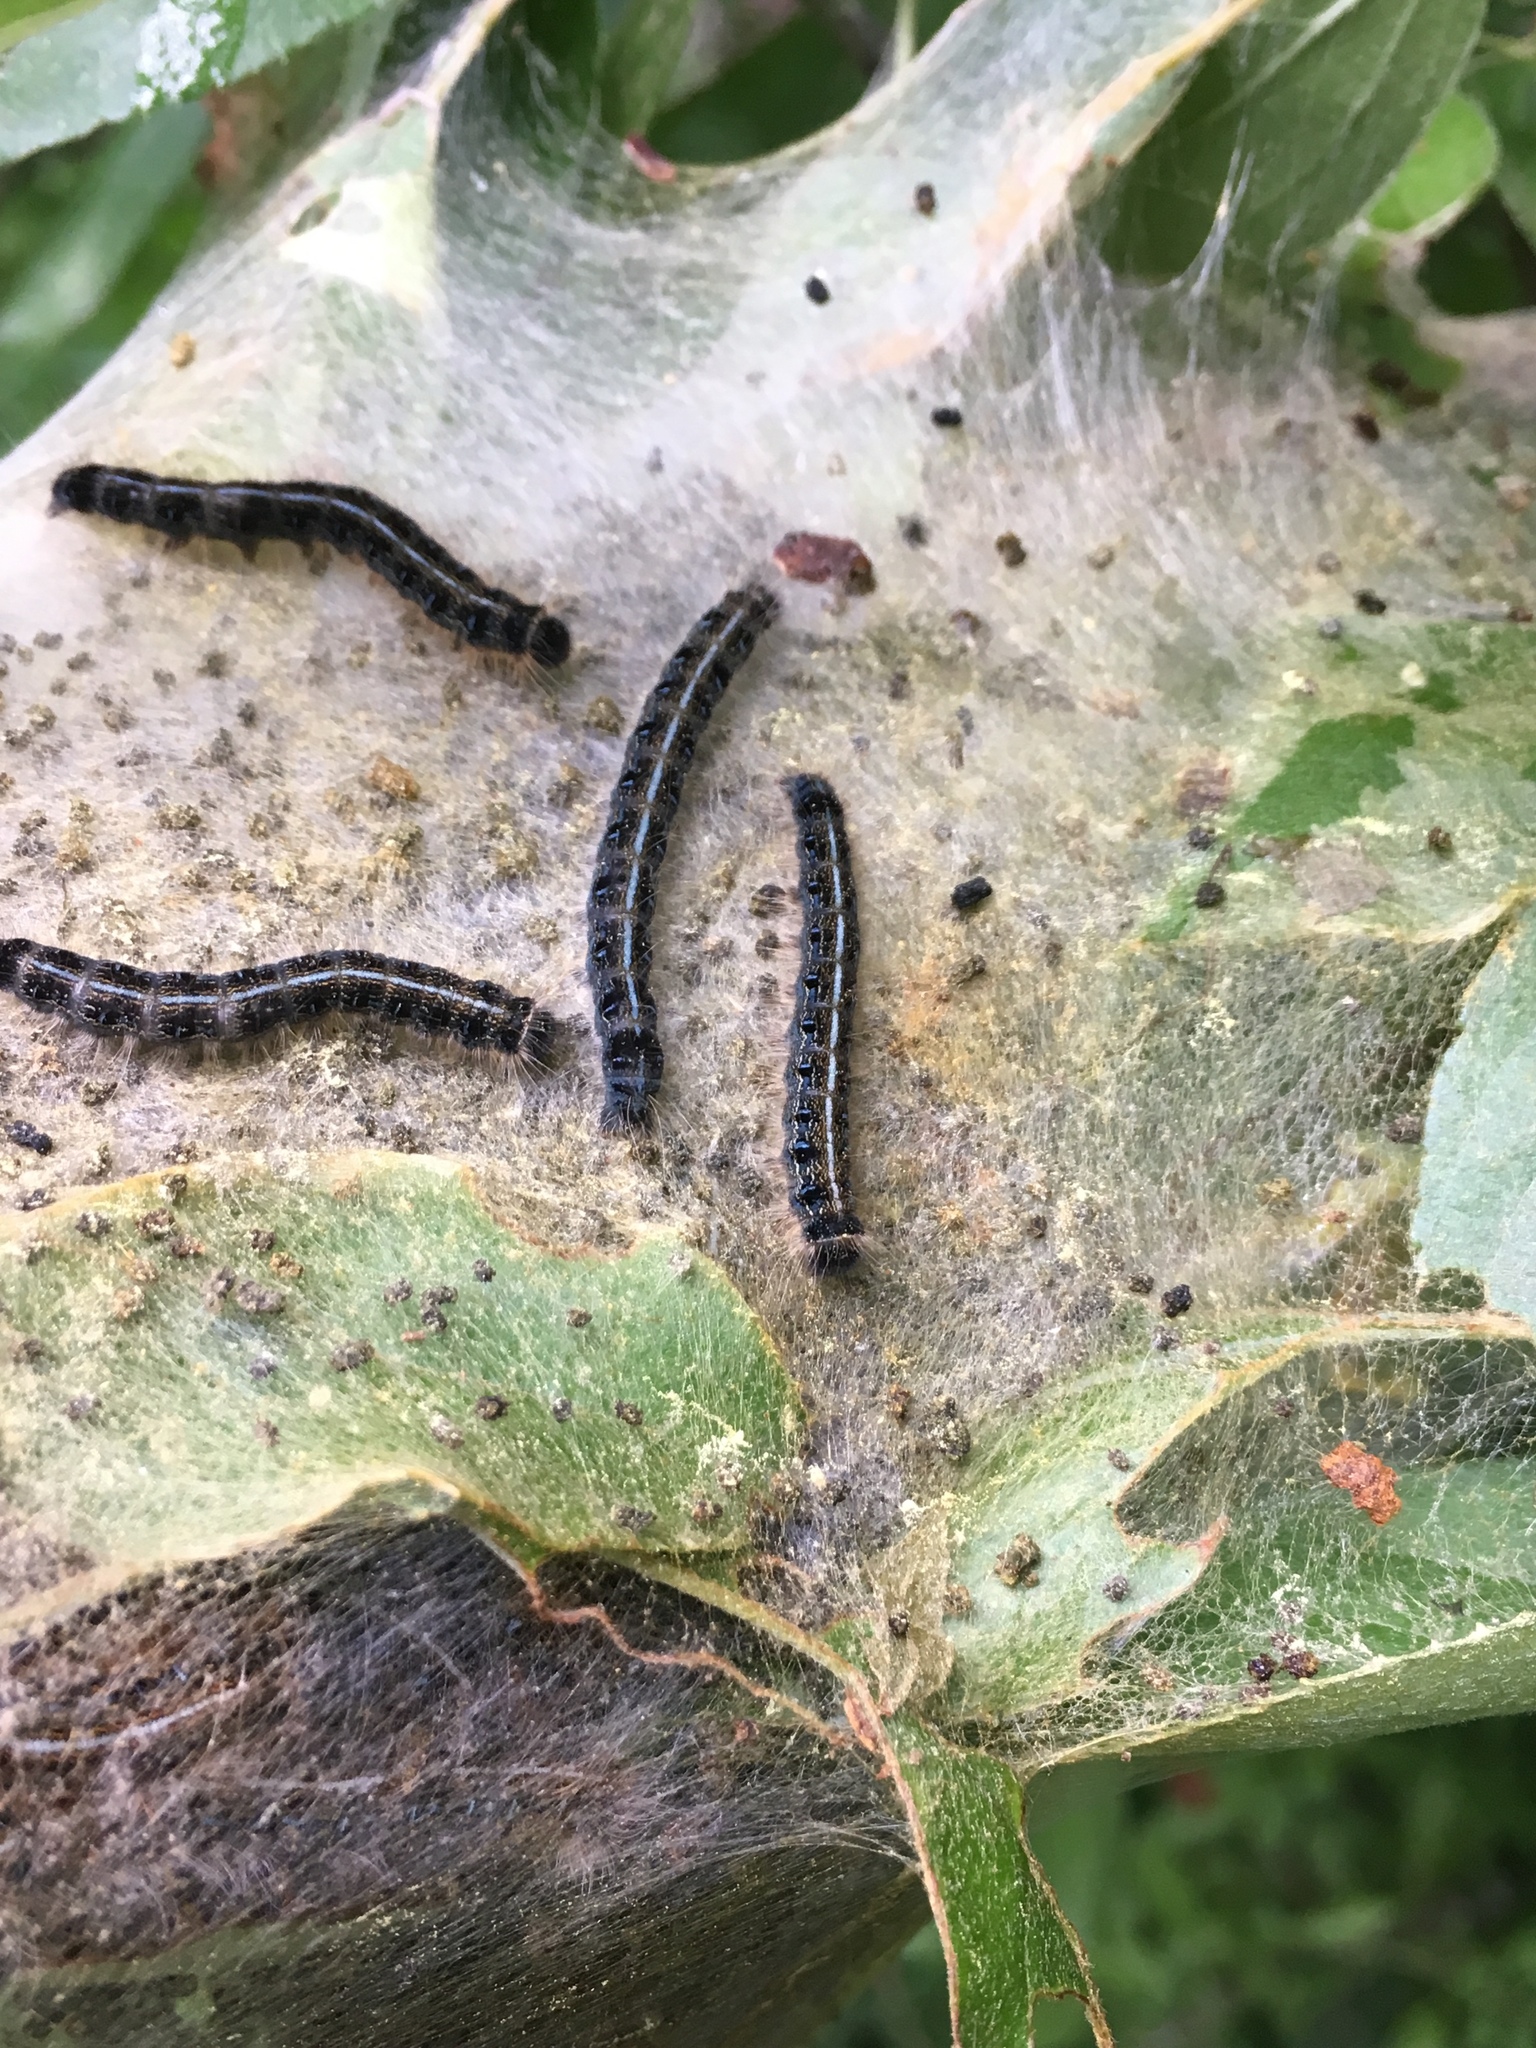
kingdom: Animalia
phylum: Arthropoda
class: Insecta
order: Lepidoptera
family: Lasiocampidae
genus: Malacosoma
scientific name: Malacosoma americana
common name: Eastern tent caterpillar moth
